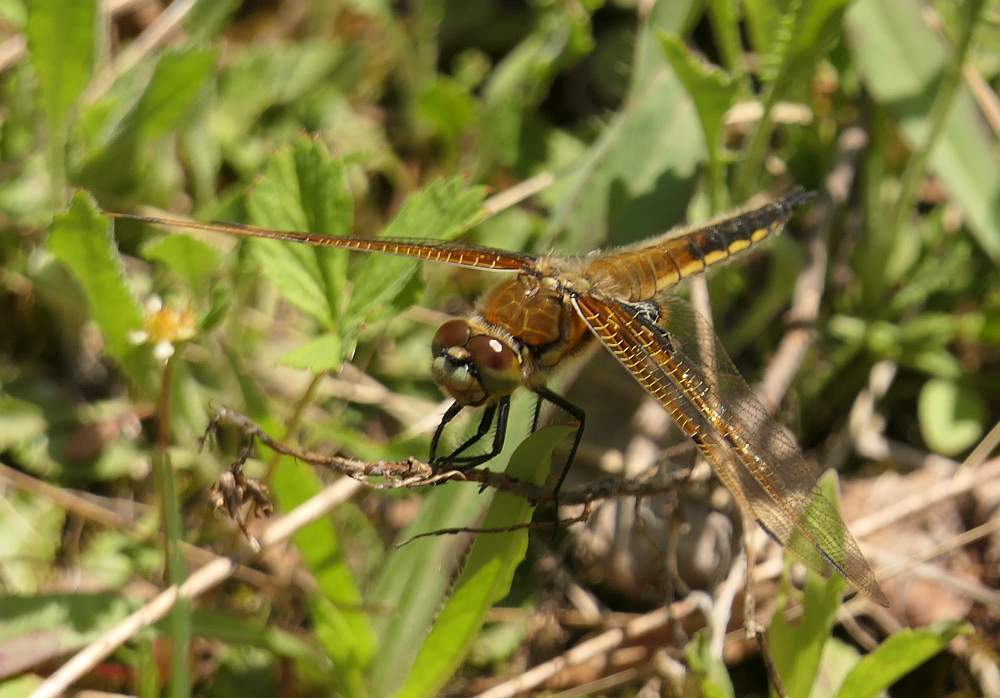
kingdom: Animalia
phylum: Arthropoda
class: Insecta
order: Odonata
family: Libellulidae
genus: Libellula
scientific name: Libellula quadrimaculata
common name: Four-spotted chaser
